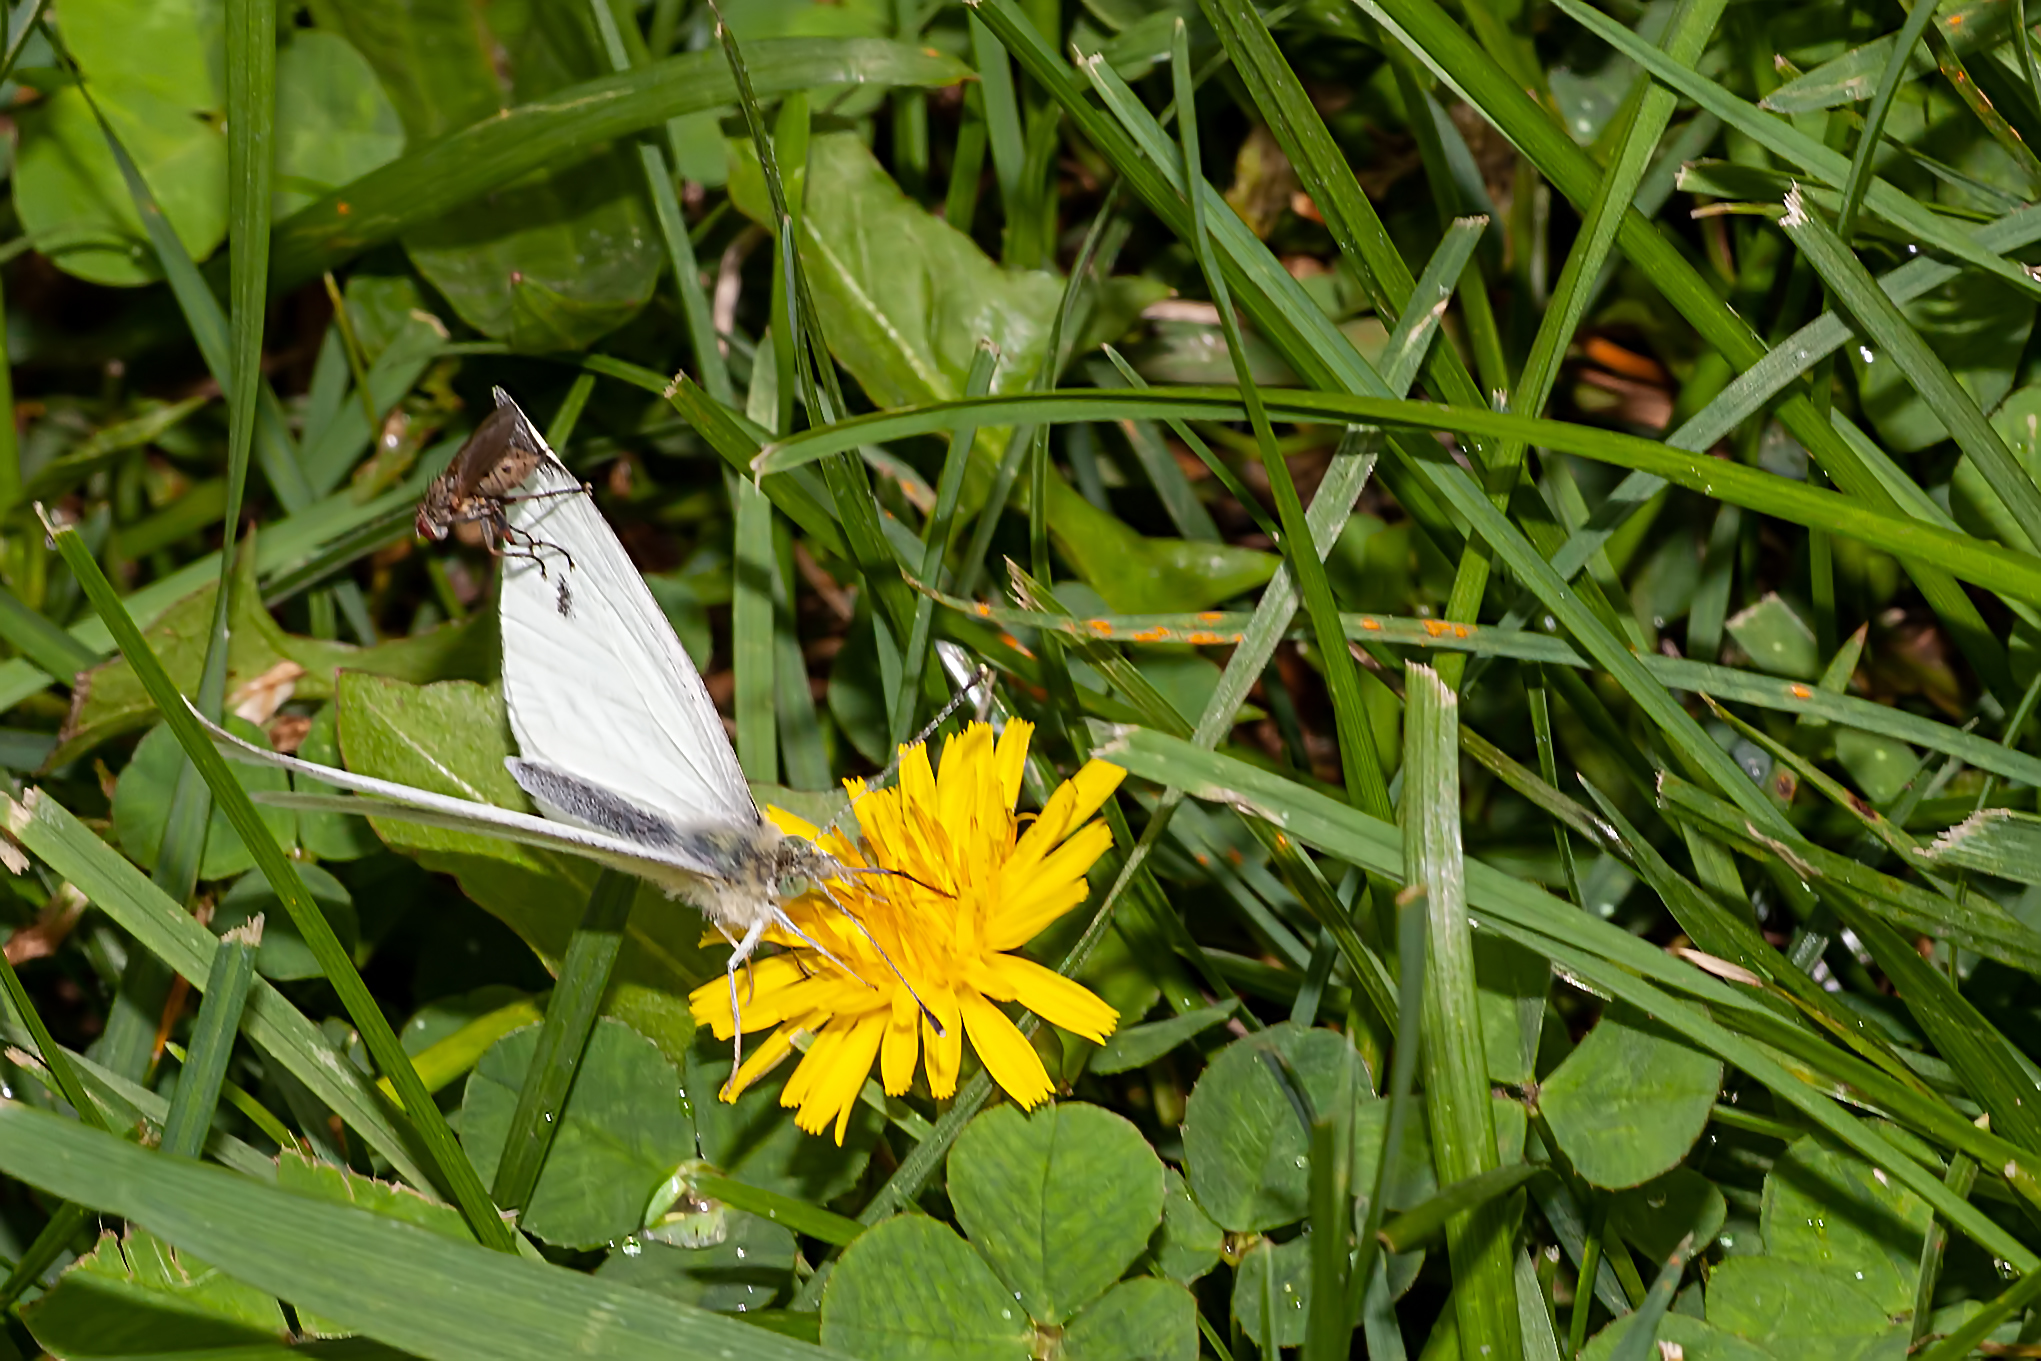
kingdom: Animalia
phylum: Arthropoda
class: Insecta
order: Lepidoptera
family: Pieridae
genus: Pieris
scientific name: Pieris rapae
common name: Small white
